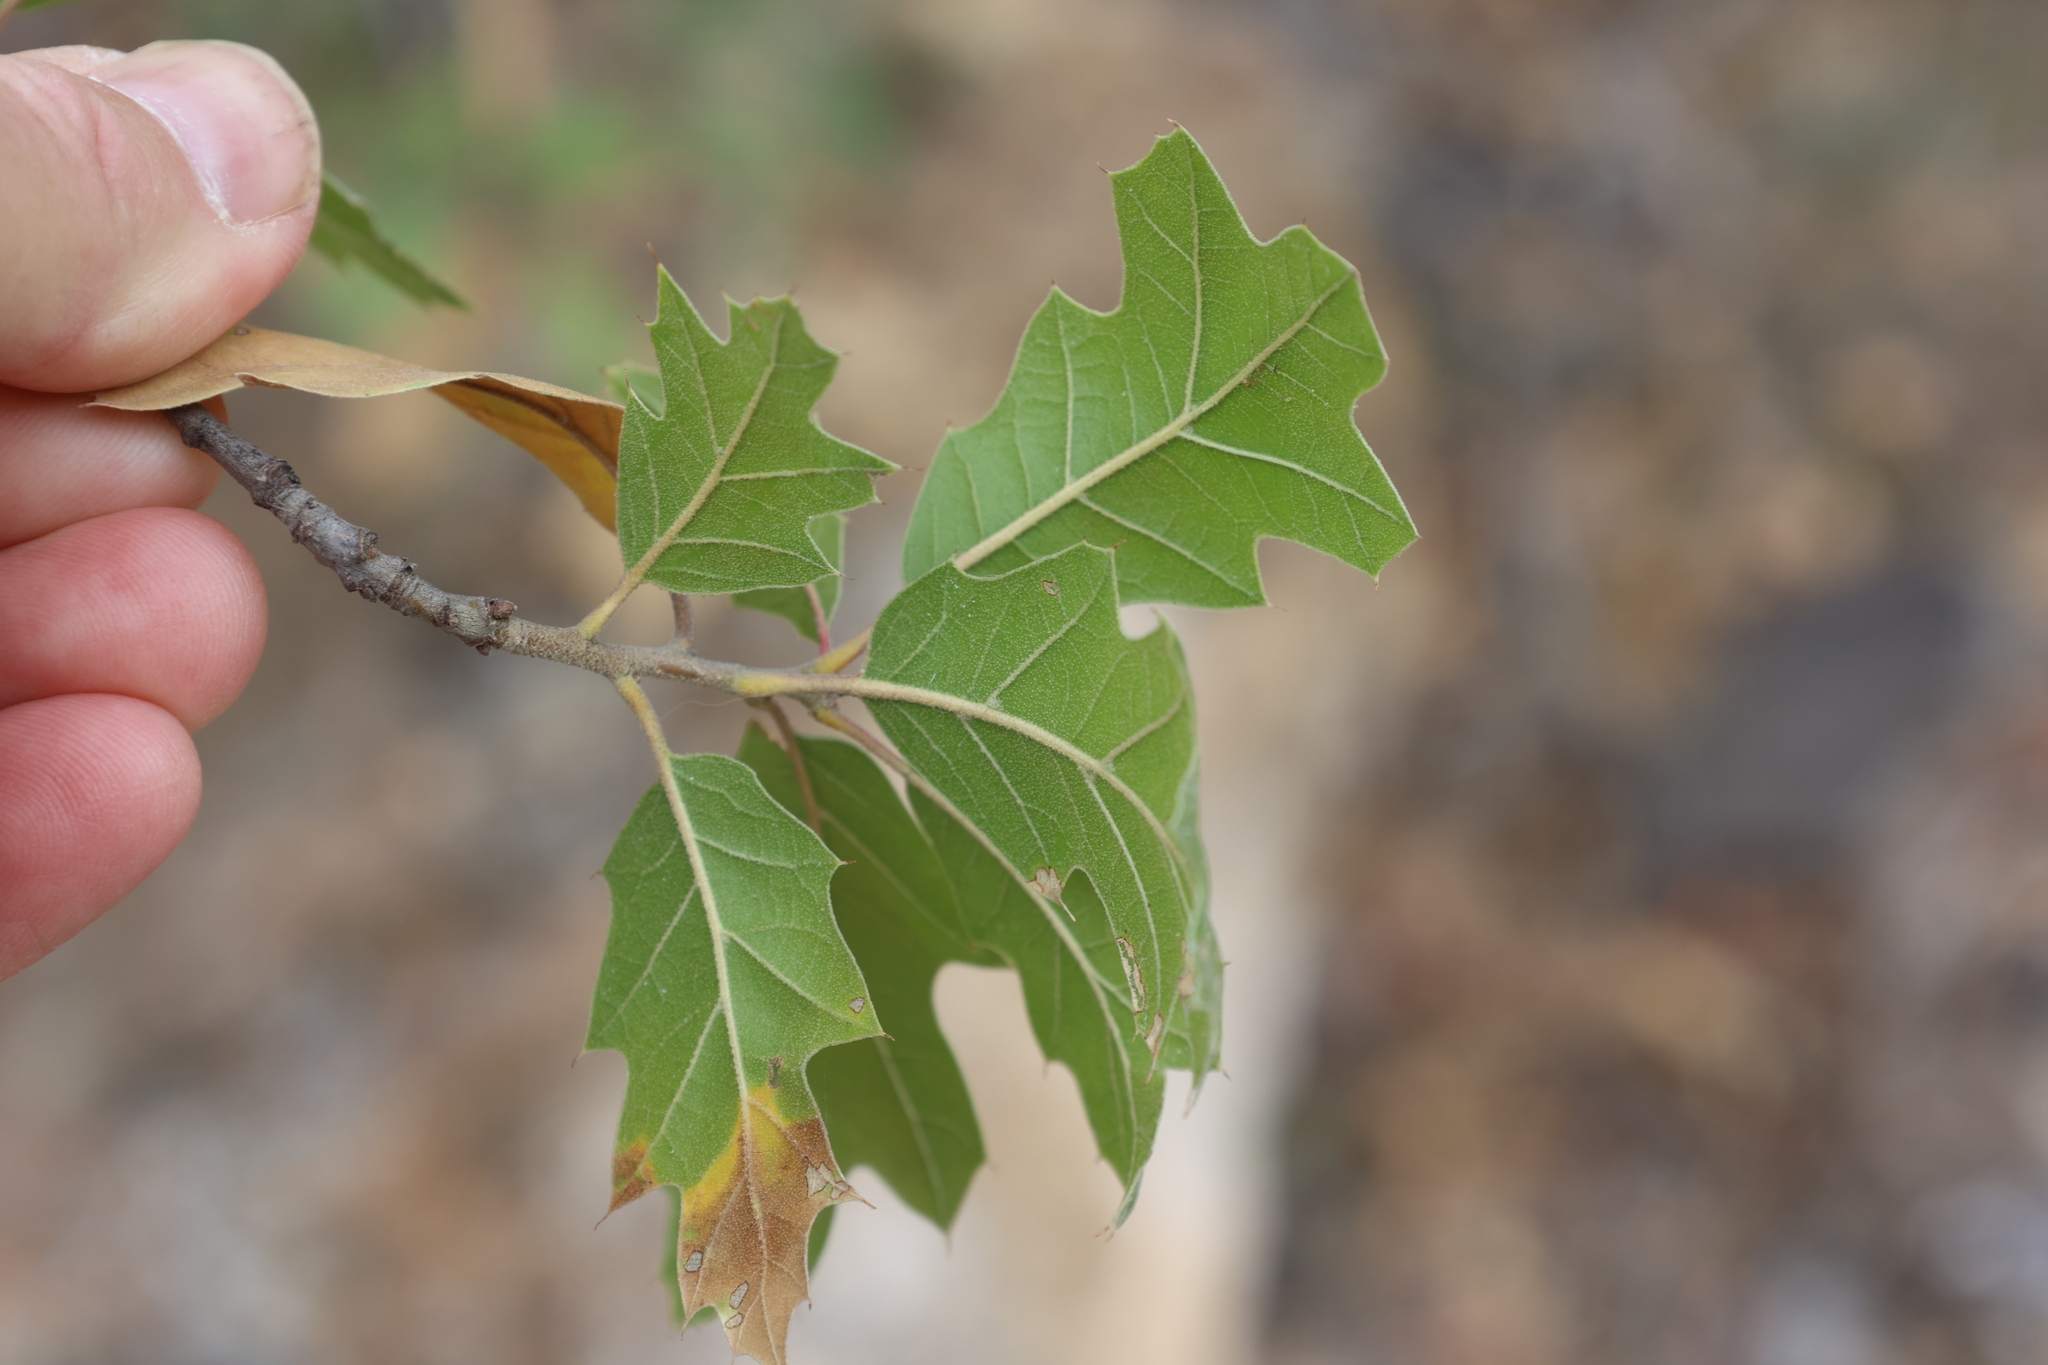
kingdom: Plantae
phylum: Tracheophyta
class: Magnoliopsida
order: Fagales
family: Fagaceae
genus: Quercus
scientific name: Quercus gravesii
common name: Chisos red oak
